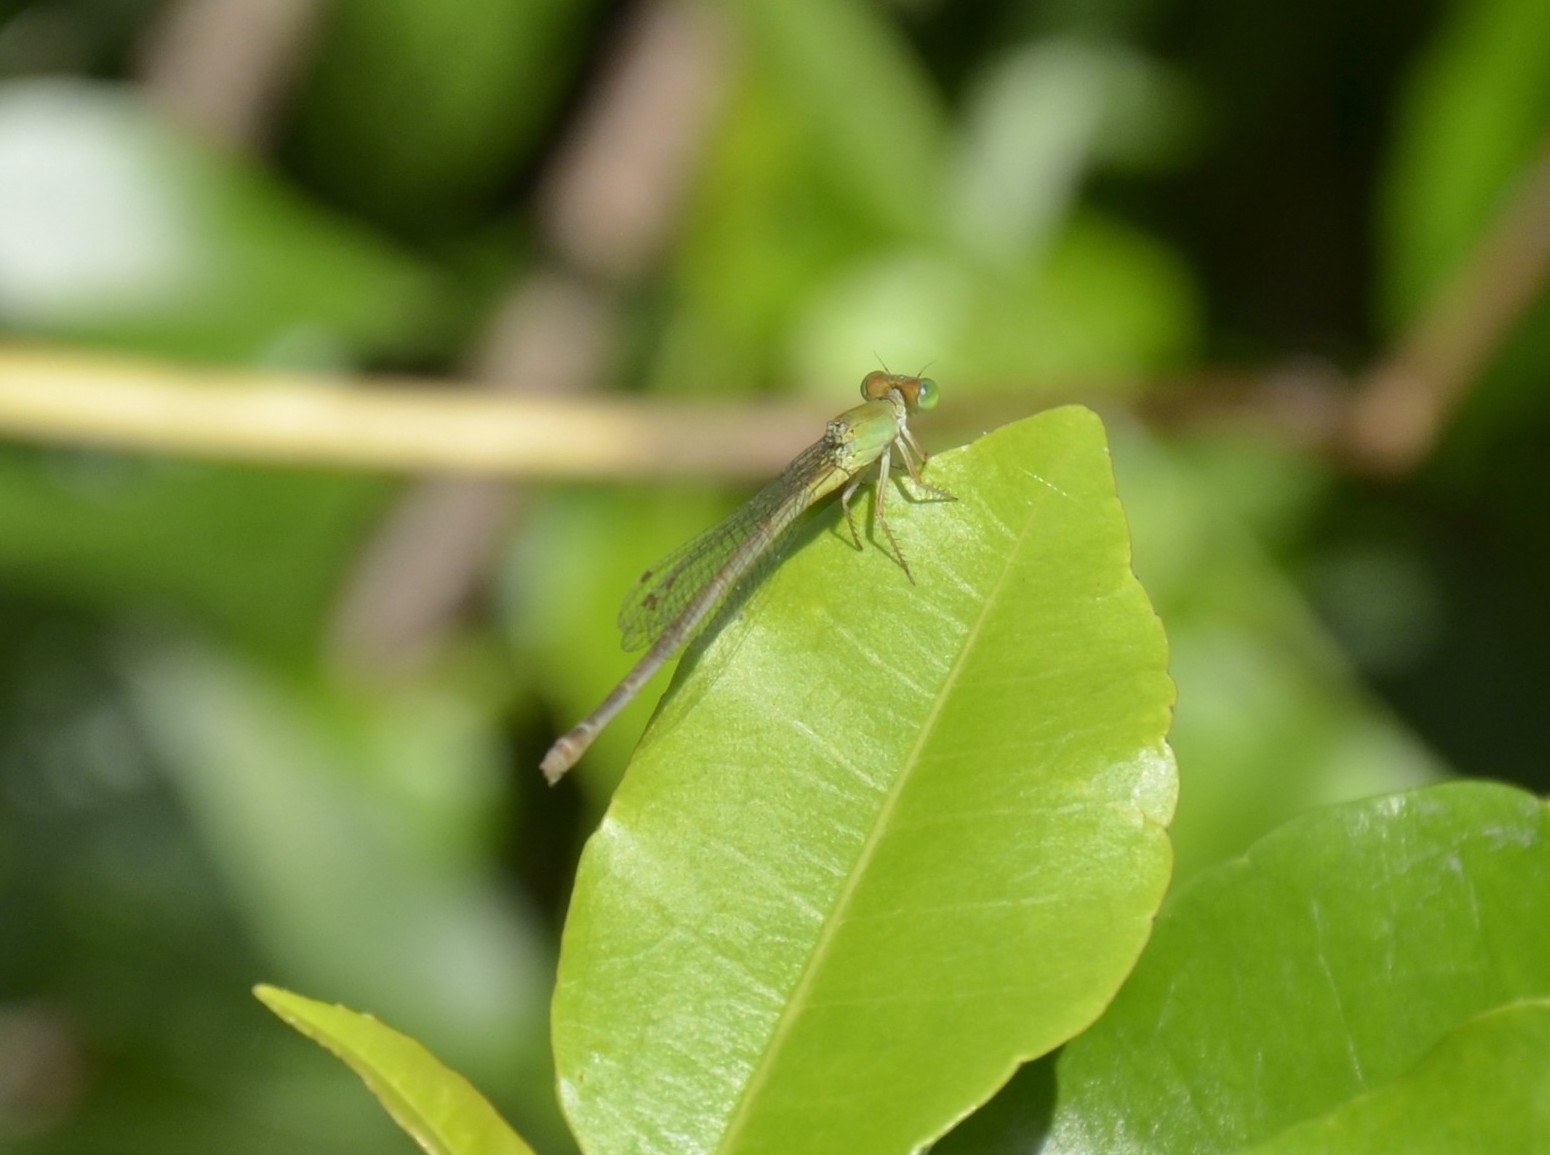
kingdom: Animalia
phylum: Arthropoda
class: Insecta
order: Odonata
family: Coenagrionidae
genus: Ceriagrion
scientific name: Ceriagrion coromandelianum
